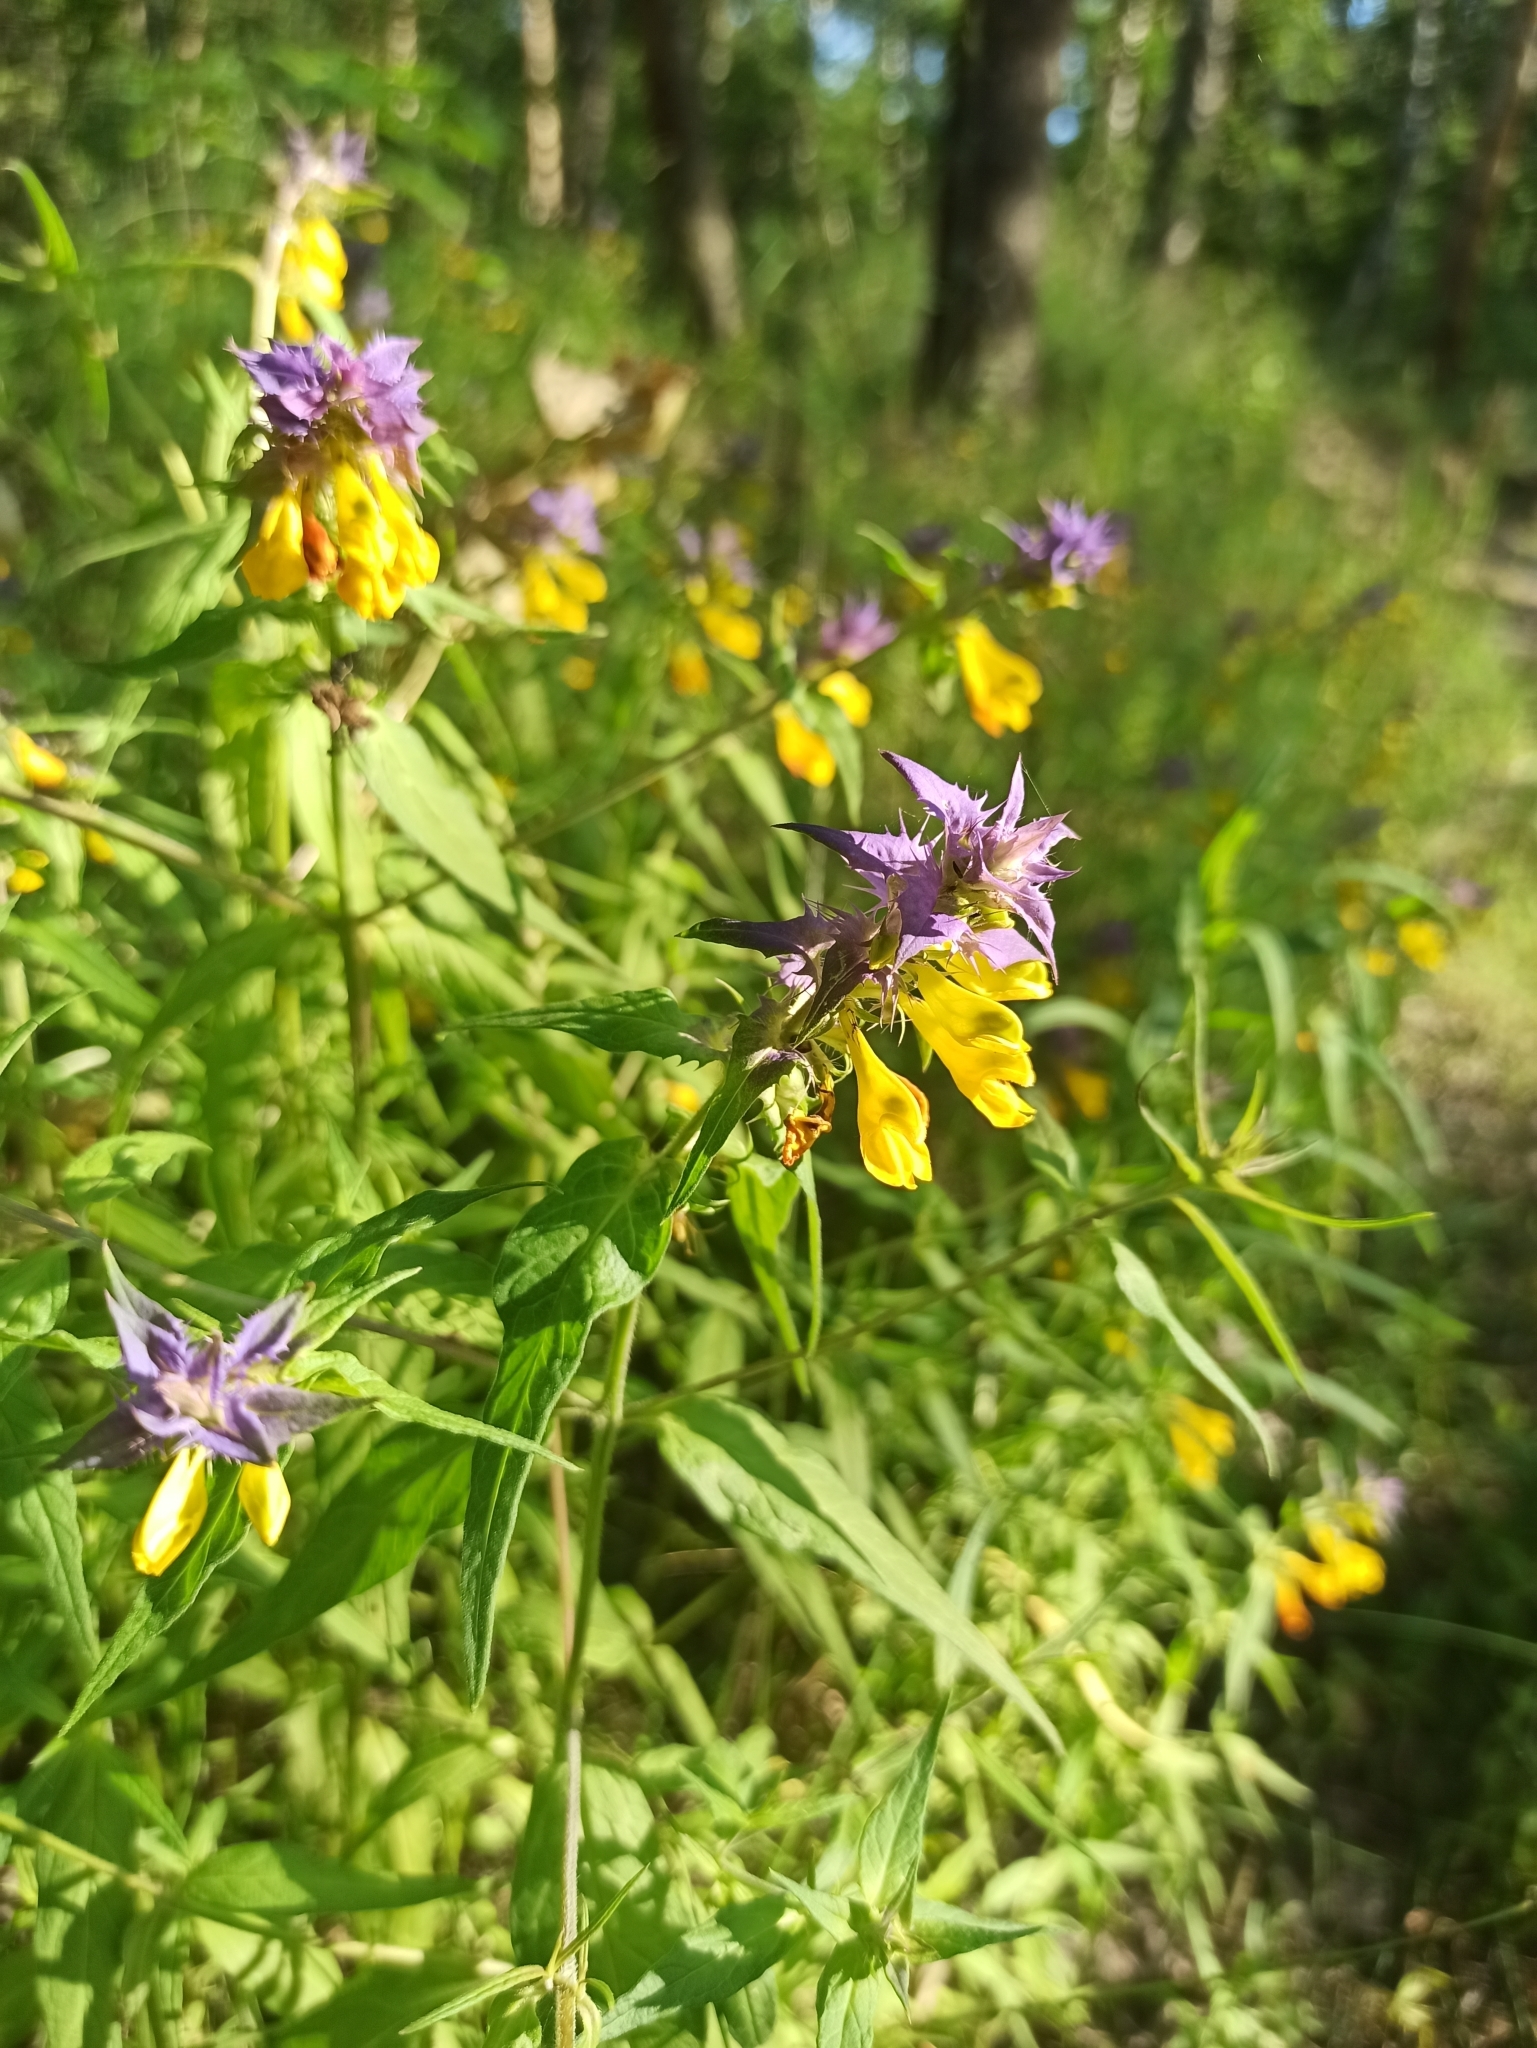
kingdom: Plantae
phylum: Tracheophyta
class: Magnoliopsida
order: Lamiales
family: Orobanchaceae
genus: Melampyrum
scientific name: Melampyrum nemorosum
